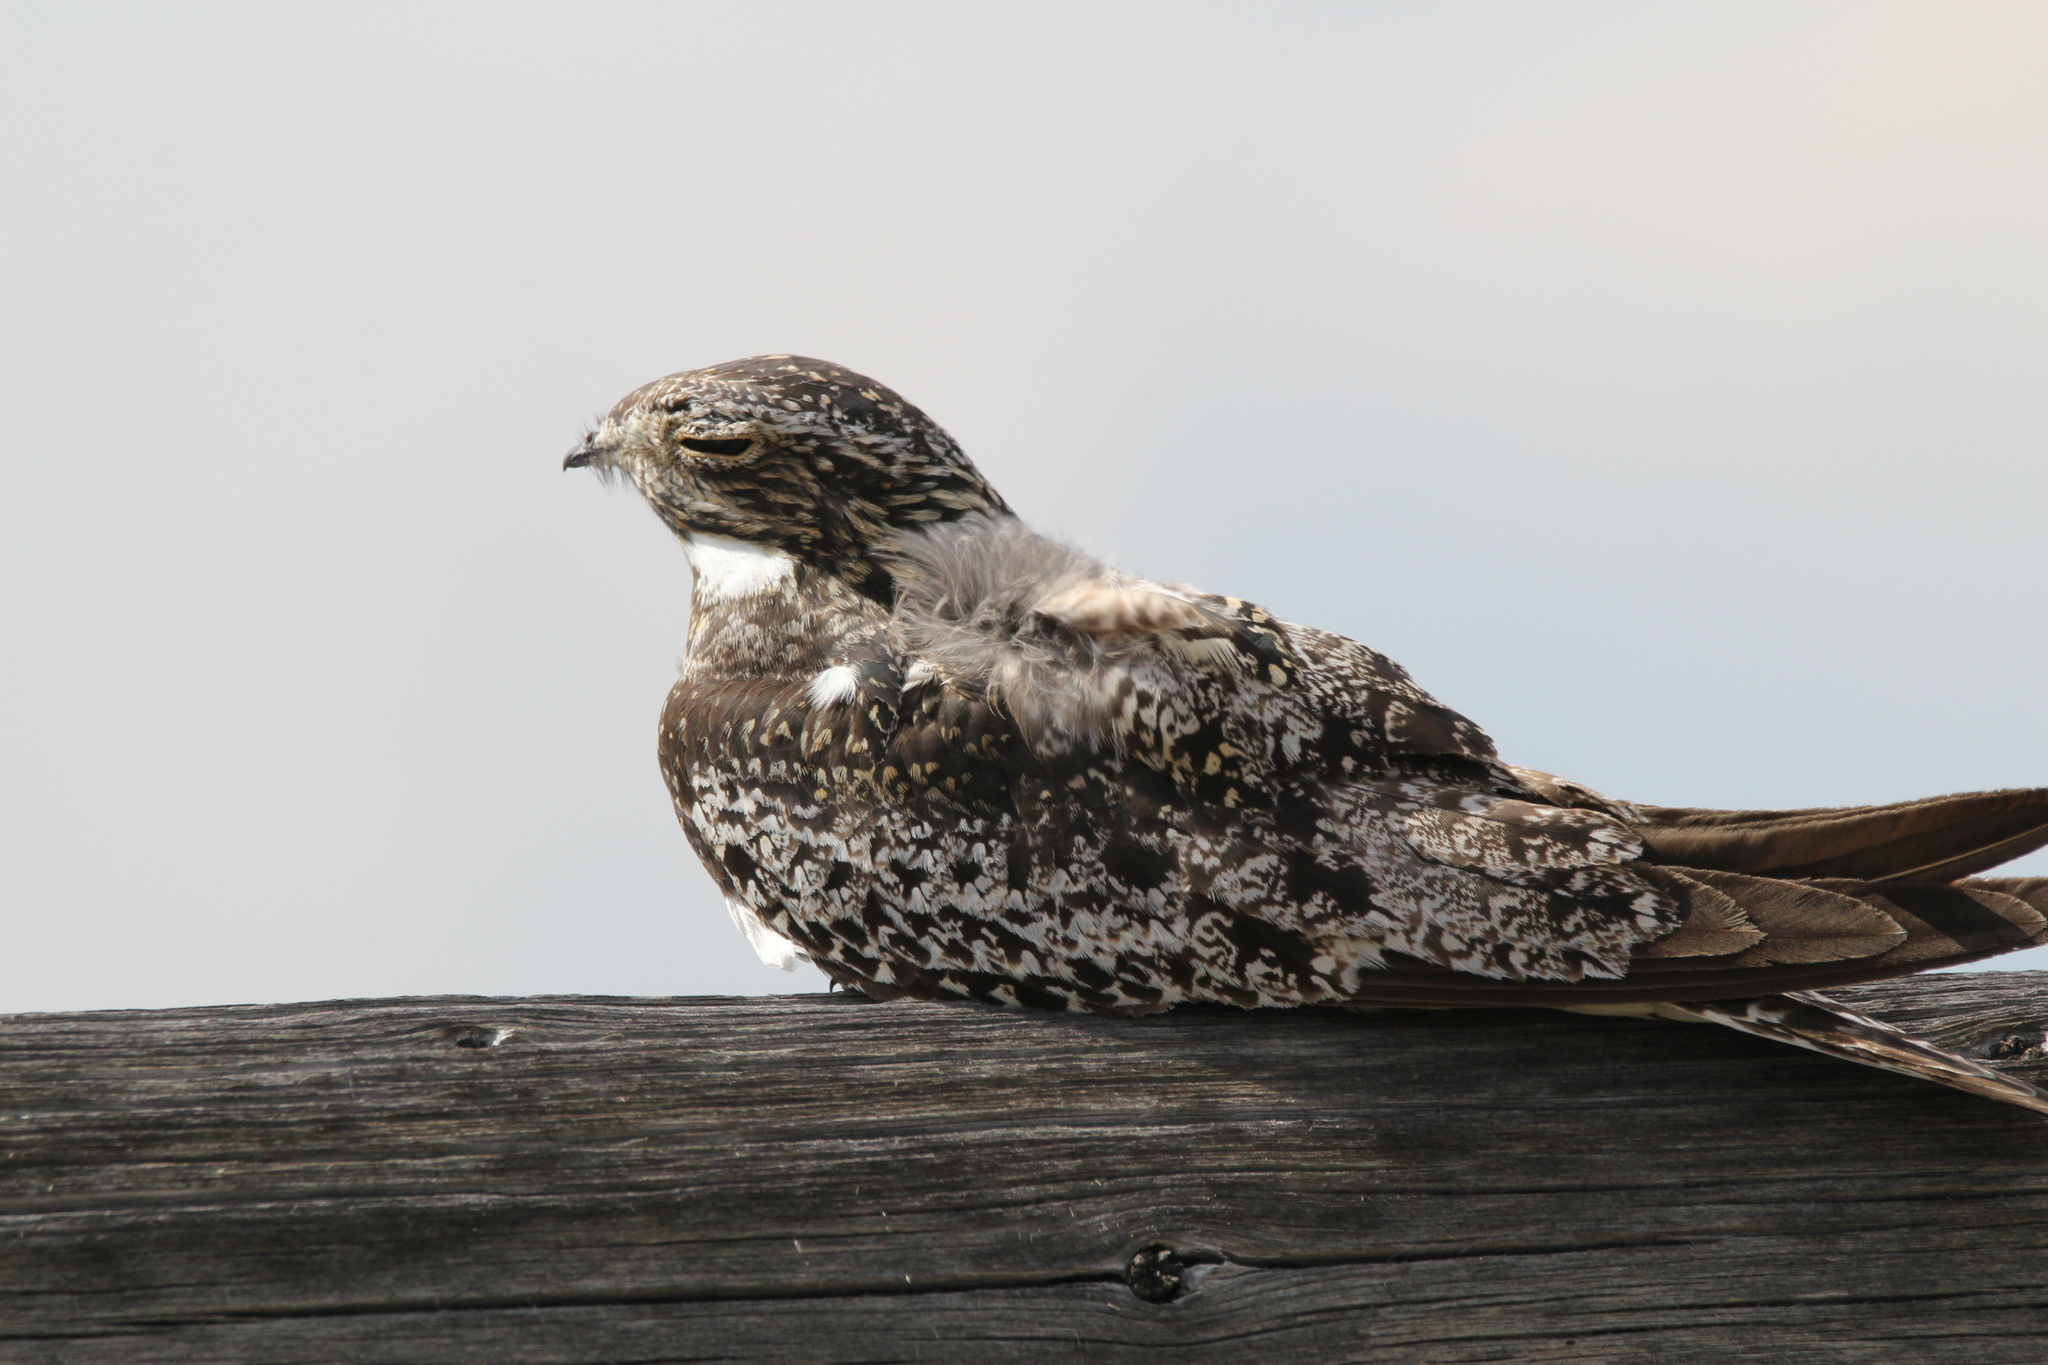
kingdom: Animalia
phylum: Chordata
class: Aves
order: Caprimulgiformes
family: Caprimulgidae
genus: Chordeiles
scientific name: Chordeiles minor
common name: Common nighthawk
